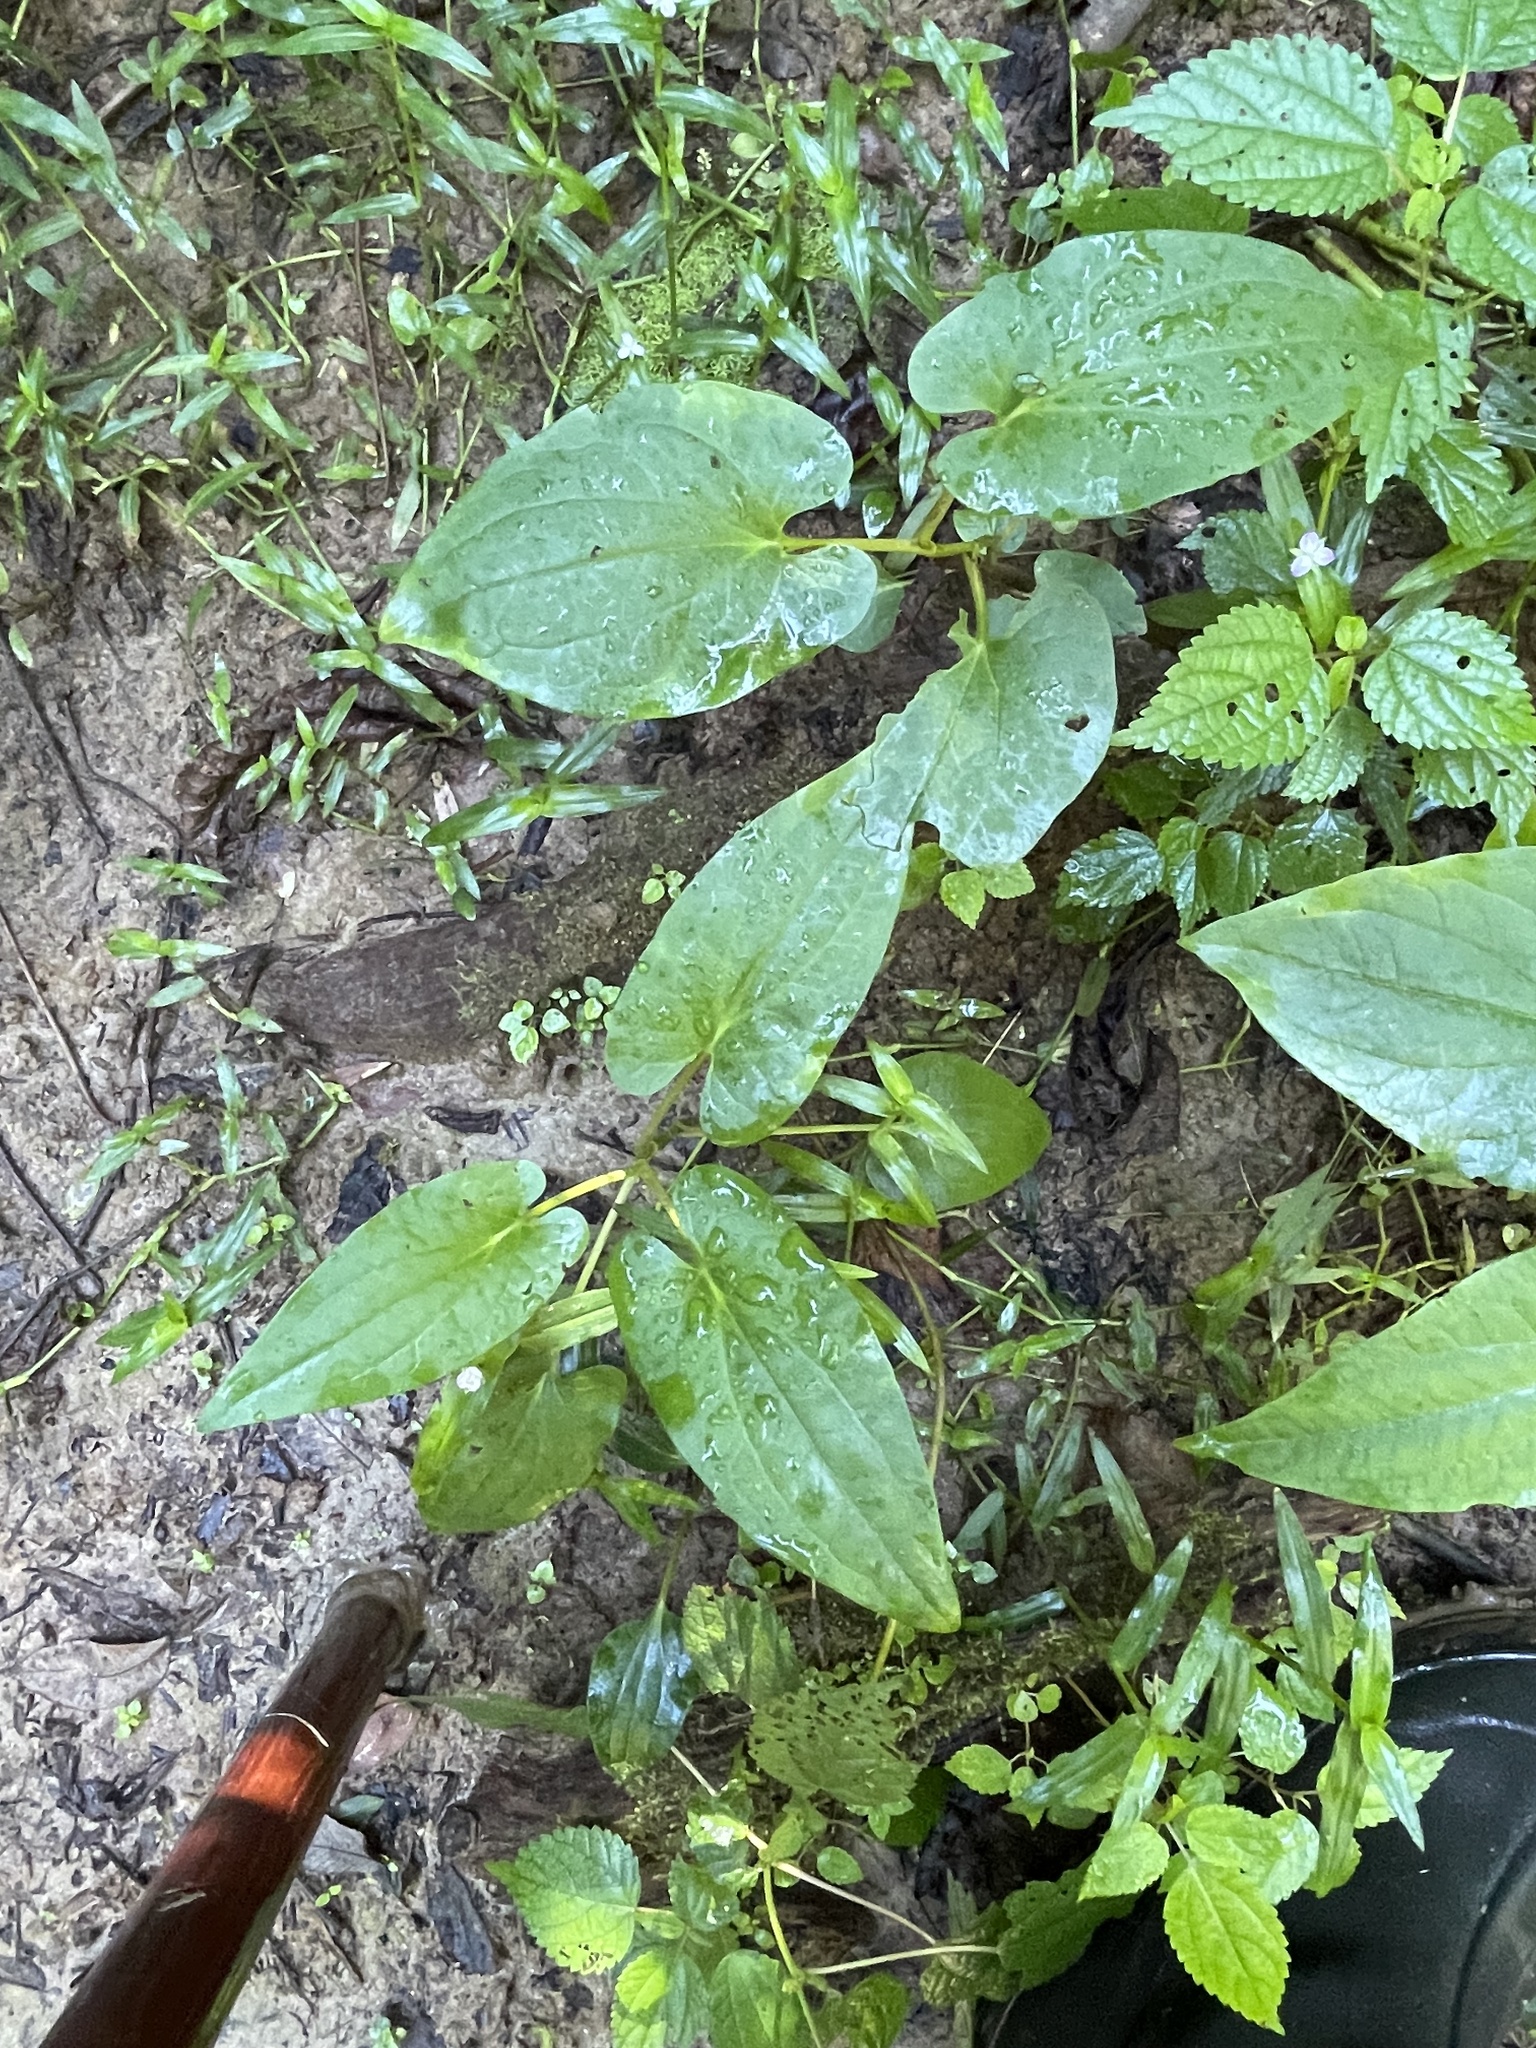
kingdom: Plantae
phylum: Tracheophyta
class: Magnoliopsida
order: Piperales
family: Saururaceae
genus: Saururus
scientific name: Saururus cernuus
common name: Lizard's-tail
